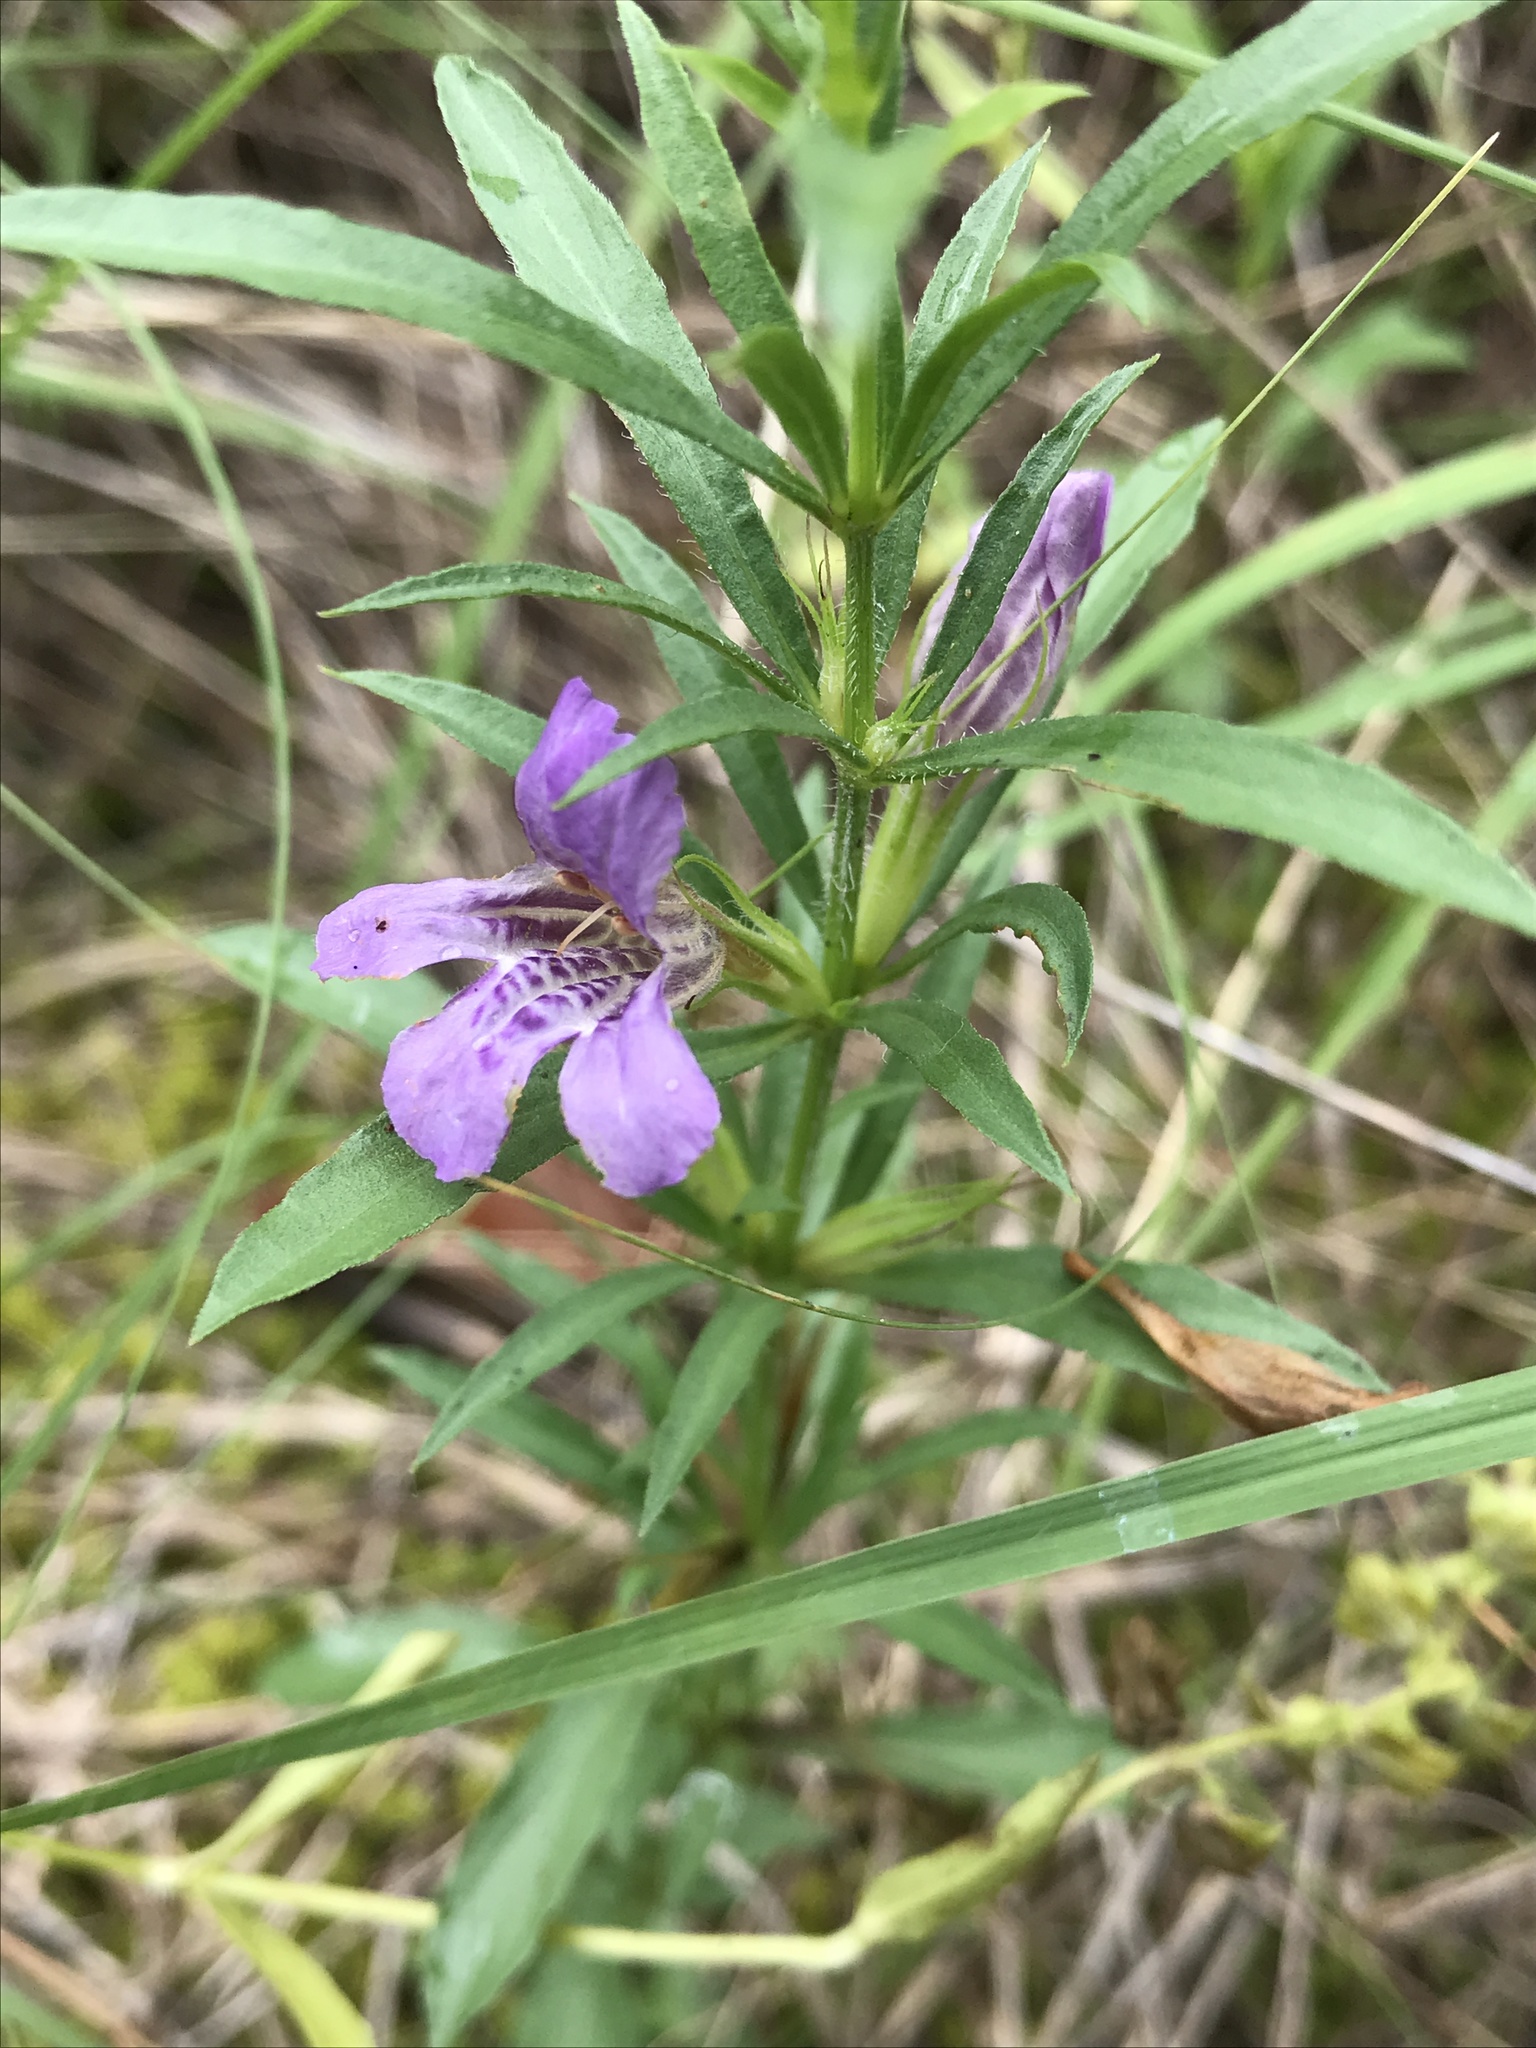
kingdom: Plantae
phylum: Tracheophyta
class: Magnoliopsida
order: Lamiales
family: Acanthaceae
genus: Dyschoriste
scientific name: Dyschoriste linearis
